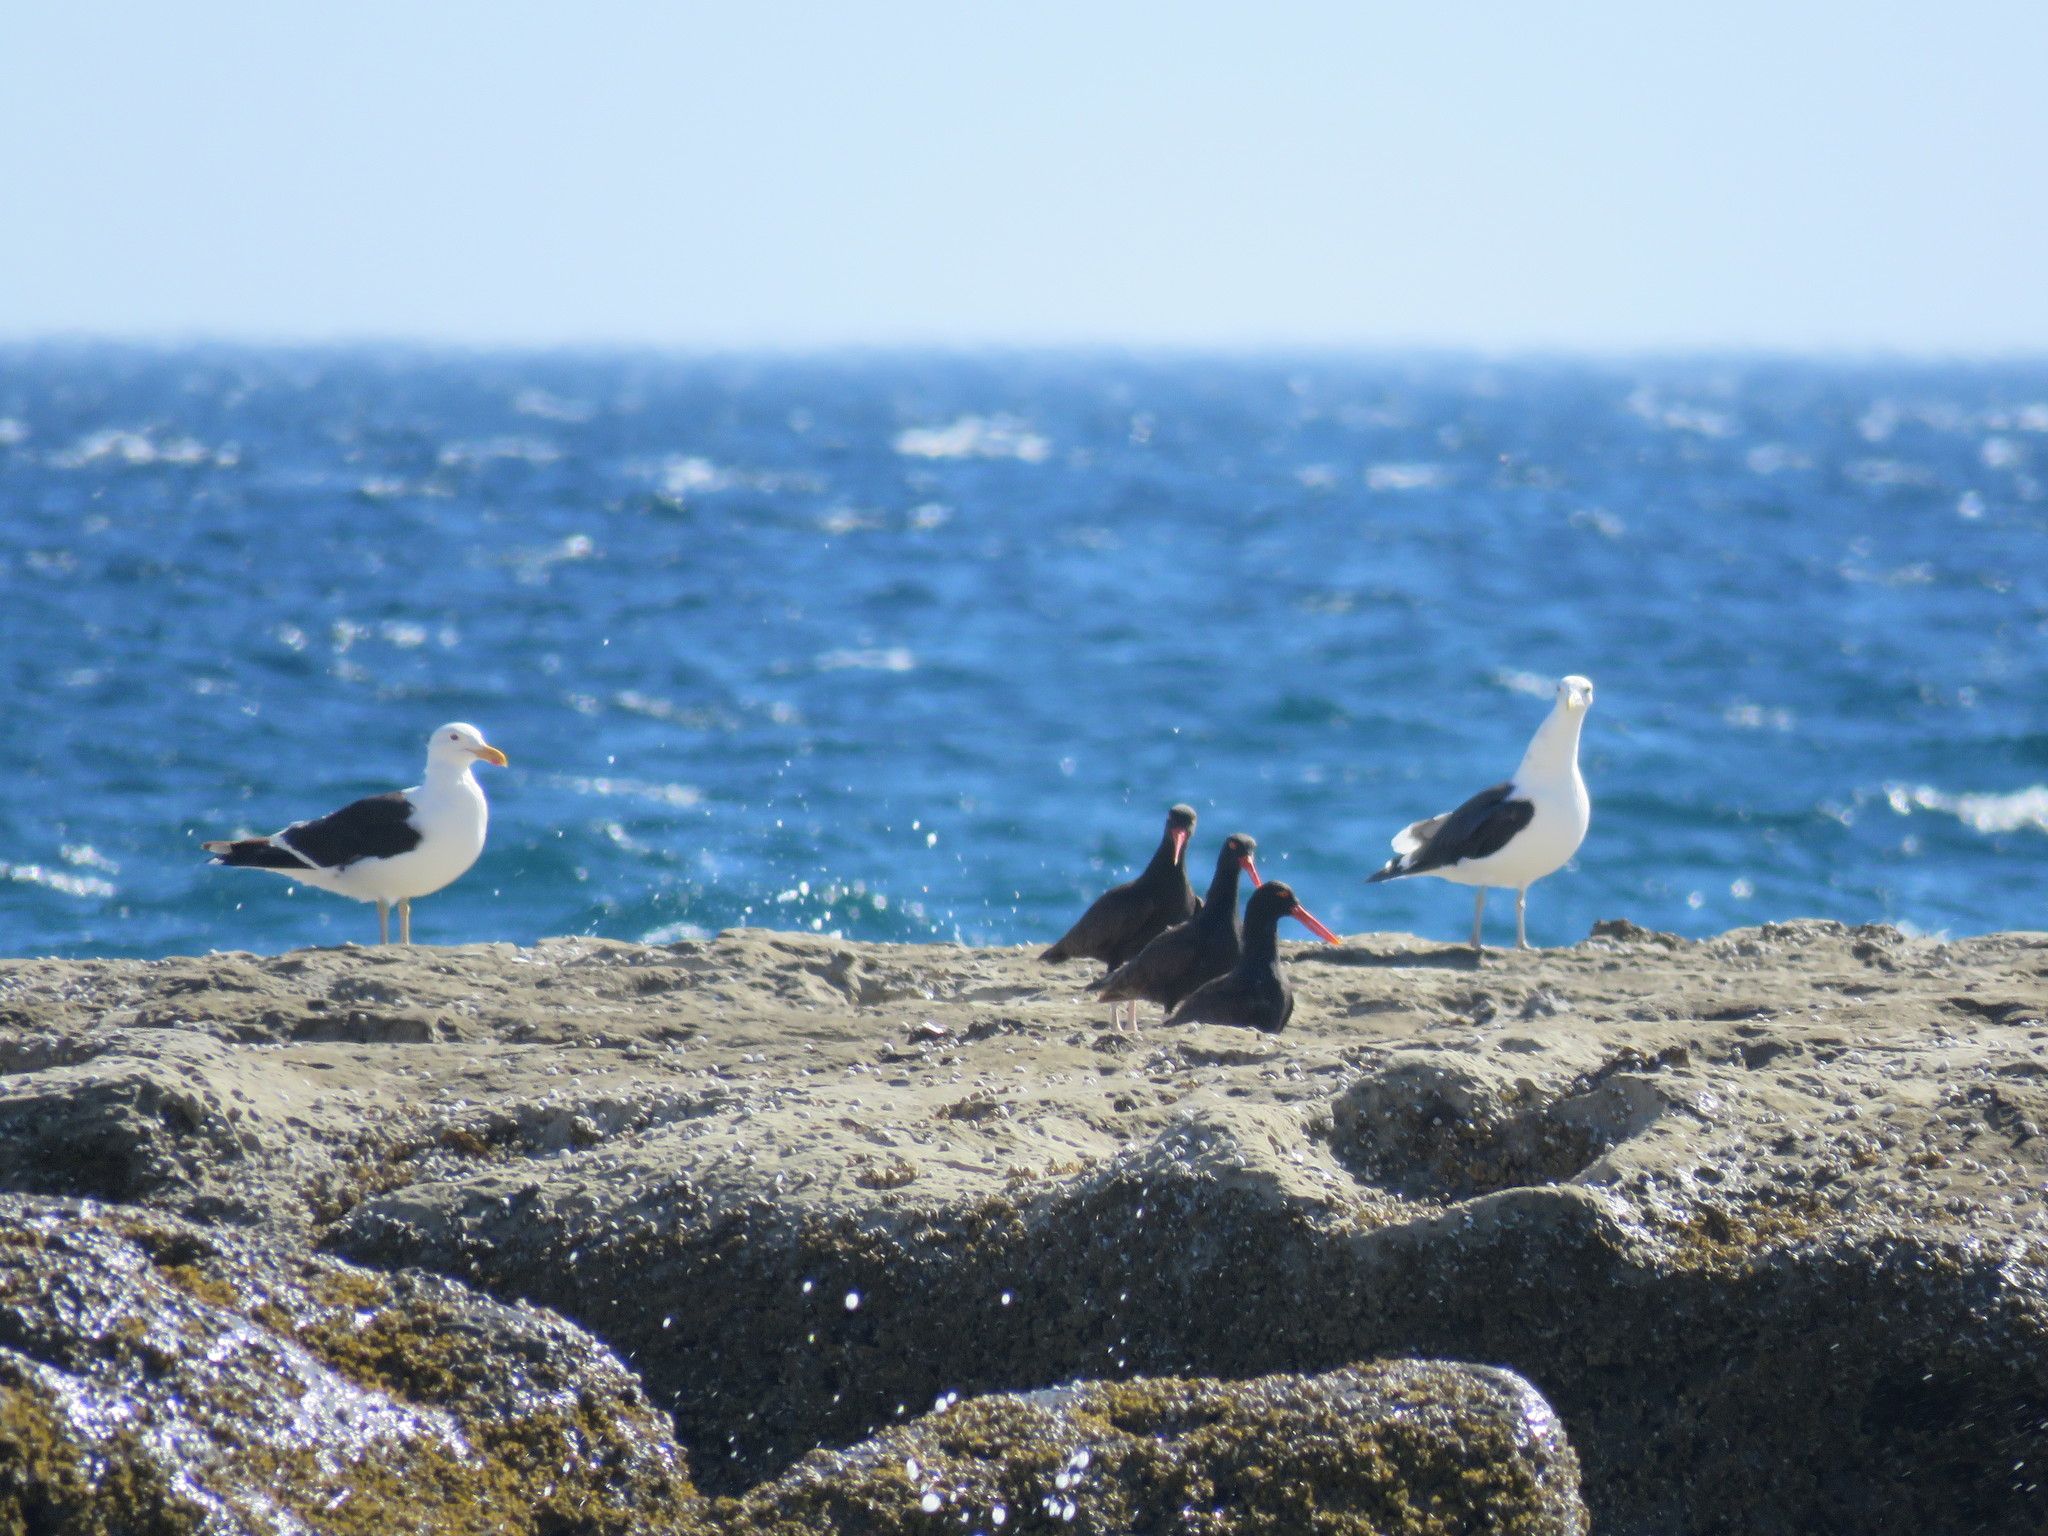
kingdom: Animalia
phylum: Chordata
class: Aves
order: Charadriiformes
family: Haematopodidae
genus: Haematopus
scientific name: Haematopus ater
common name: Blackish oystercatcher
